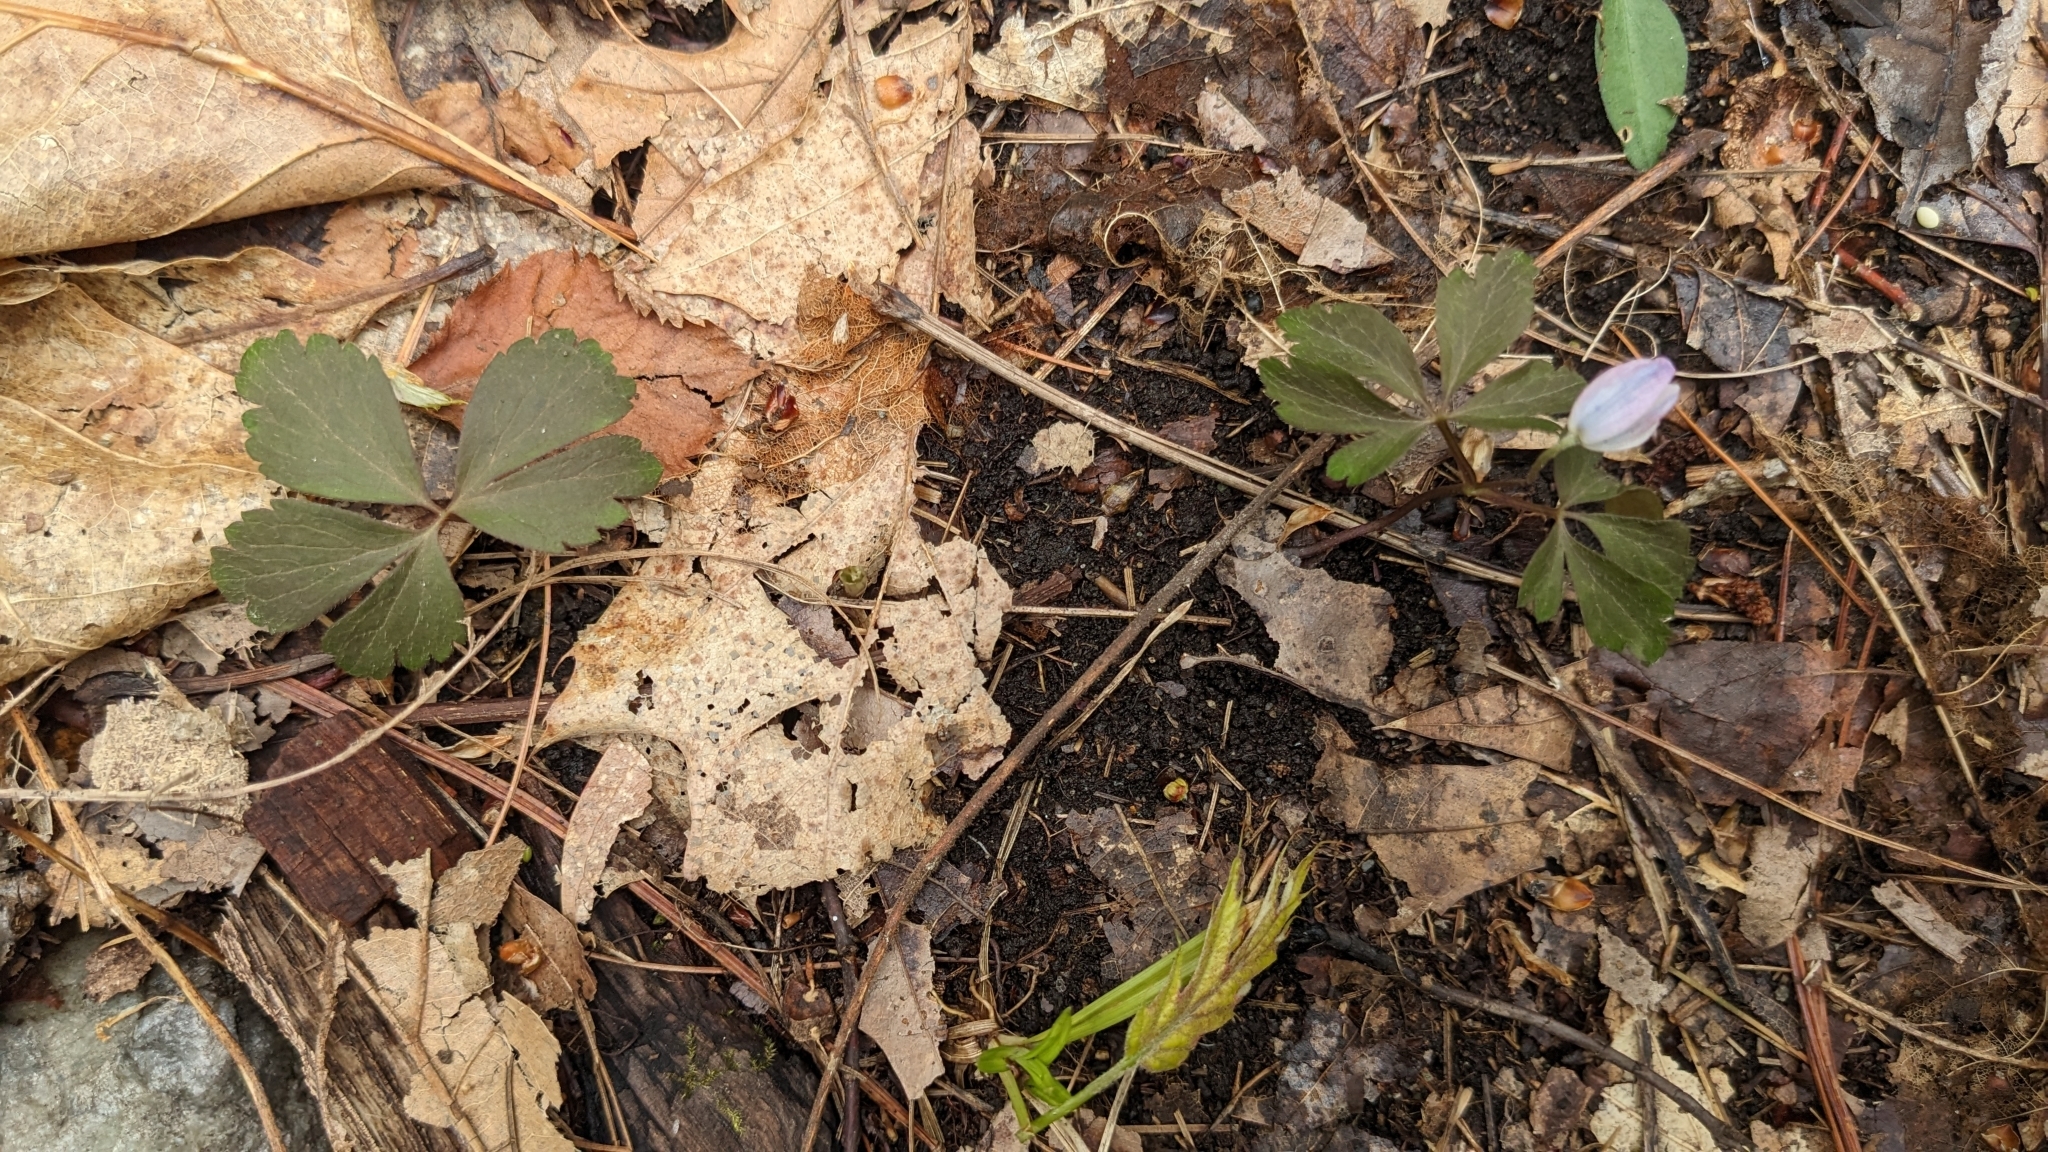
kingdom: Plantae
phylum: Tracheophyta
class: Magnoliopsida
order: Ranunculales
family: Ranunculaceae
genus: Anemone
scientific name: Anemone quinquefolia
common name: Wood anemone
